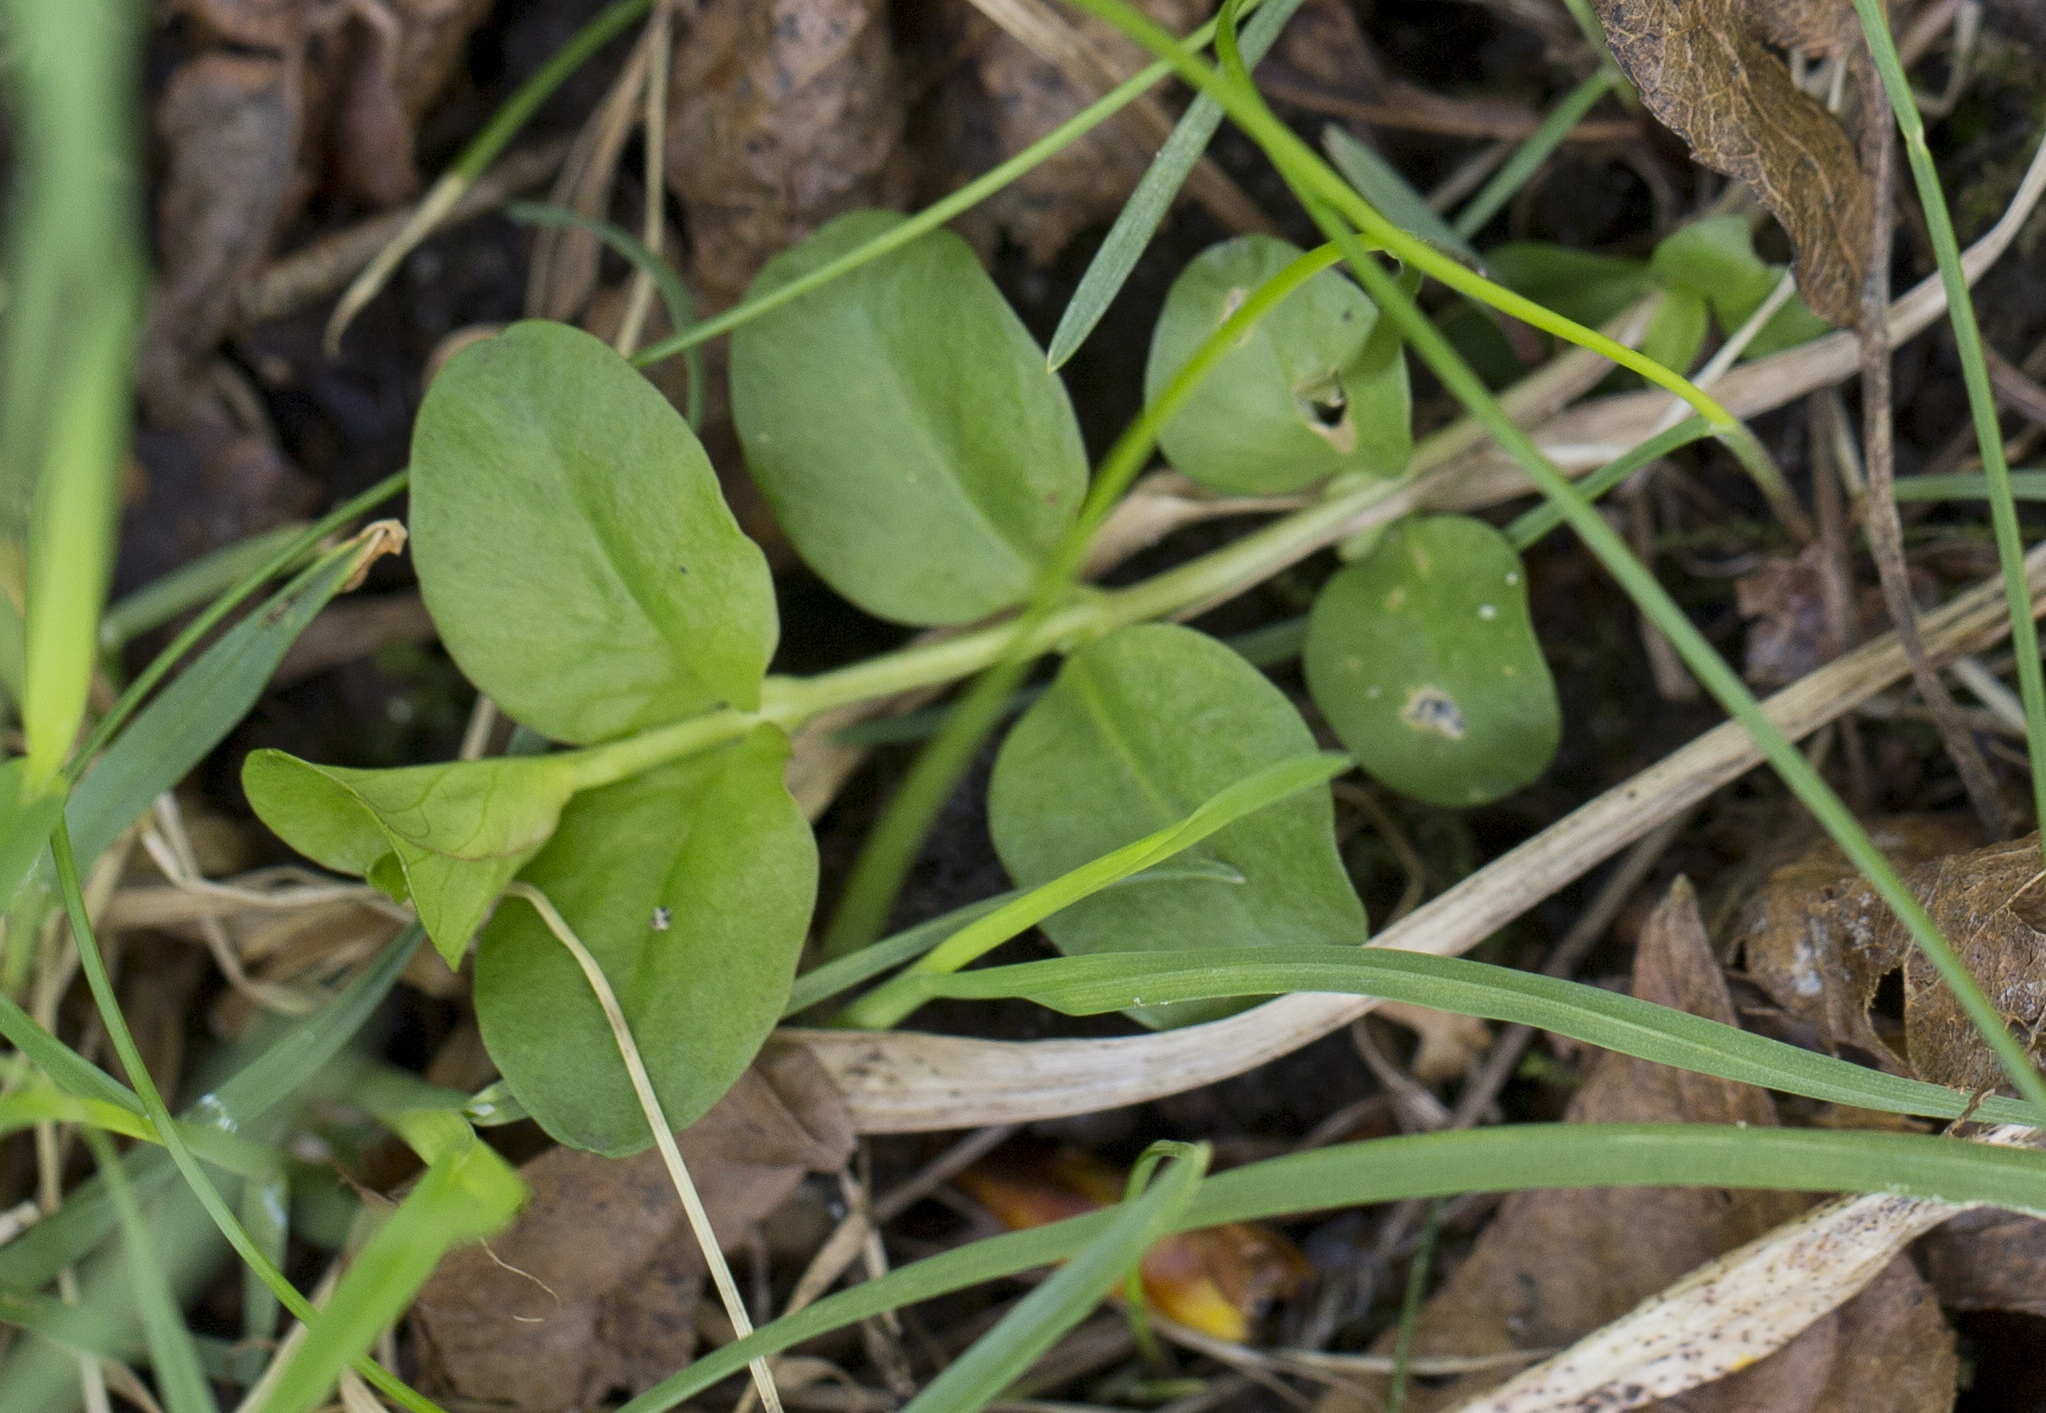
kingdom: Plantae
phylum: Tracheophyta
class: Magnoliopsida
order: Ericales
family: Primulaceae
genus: Lysimachia
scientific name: Lysimachia nummularia
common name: Moneywort
